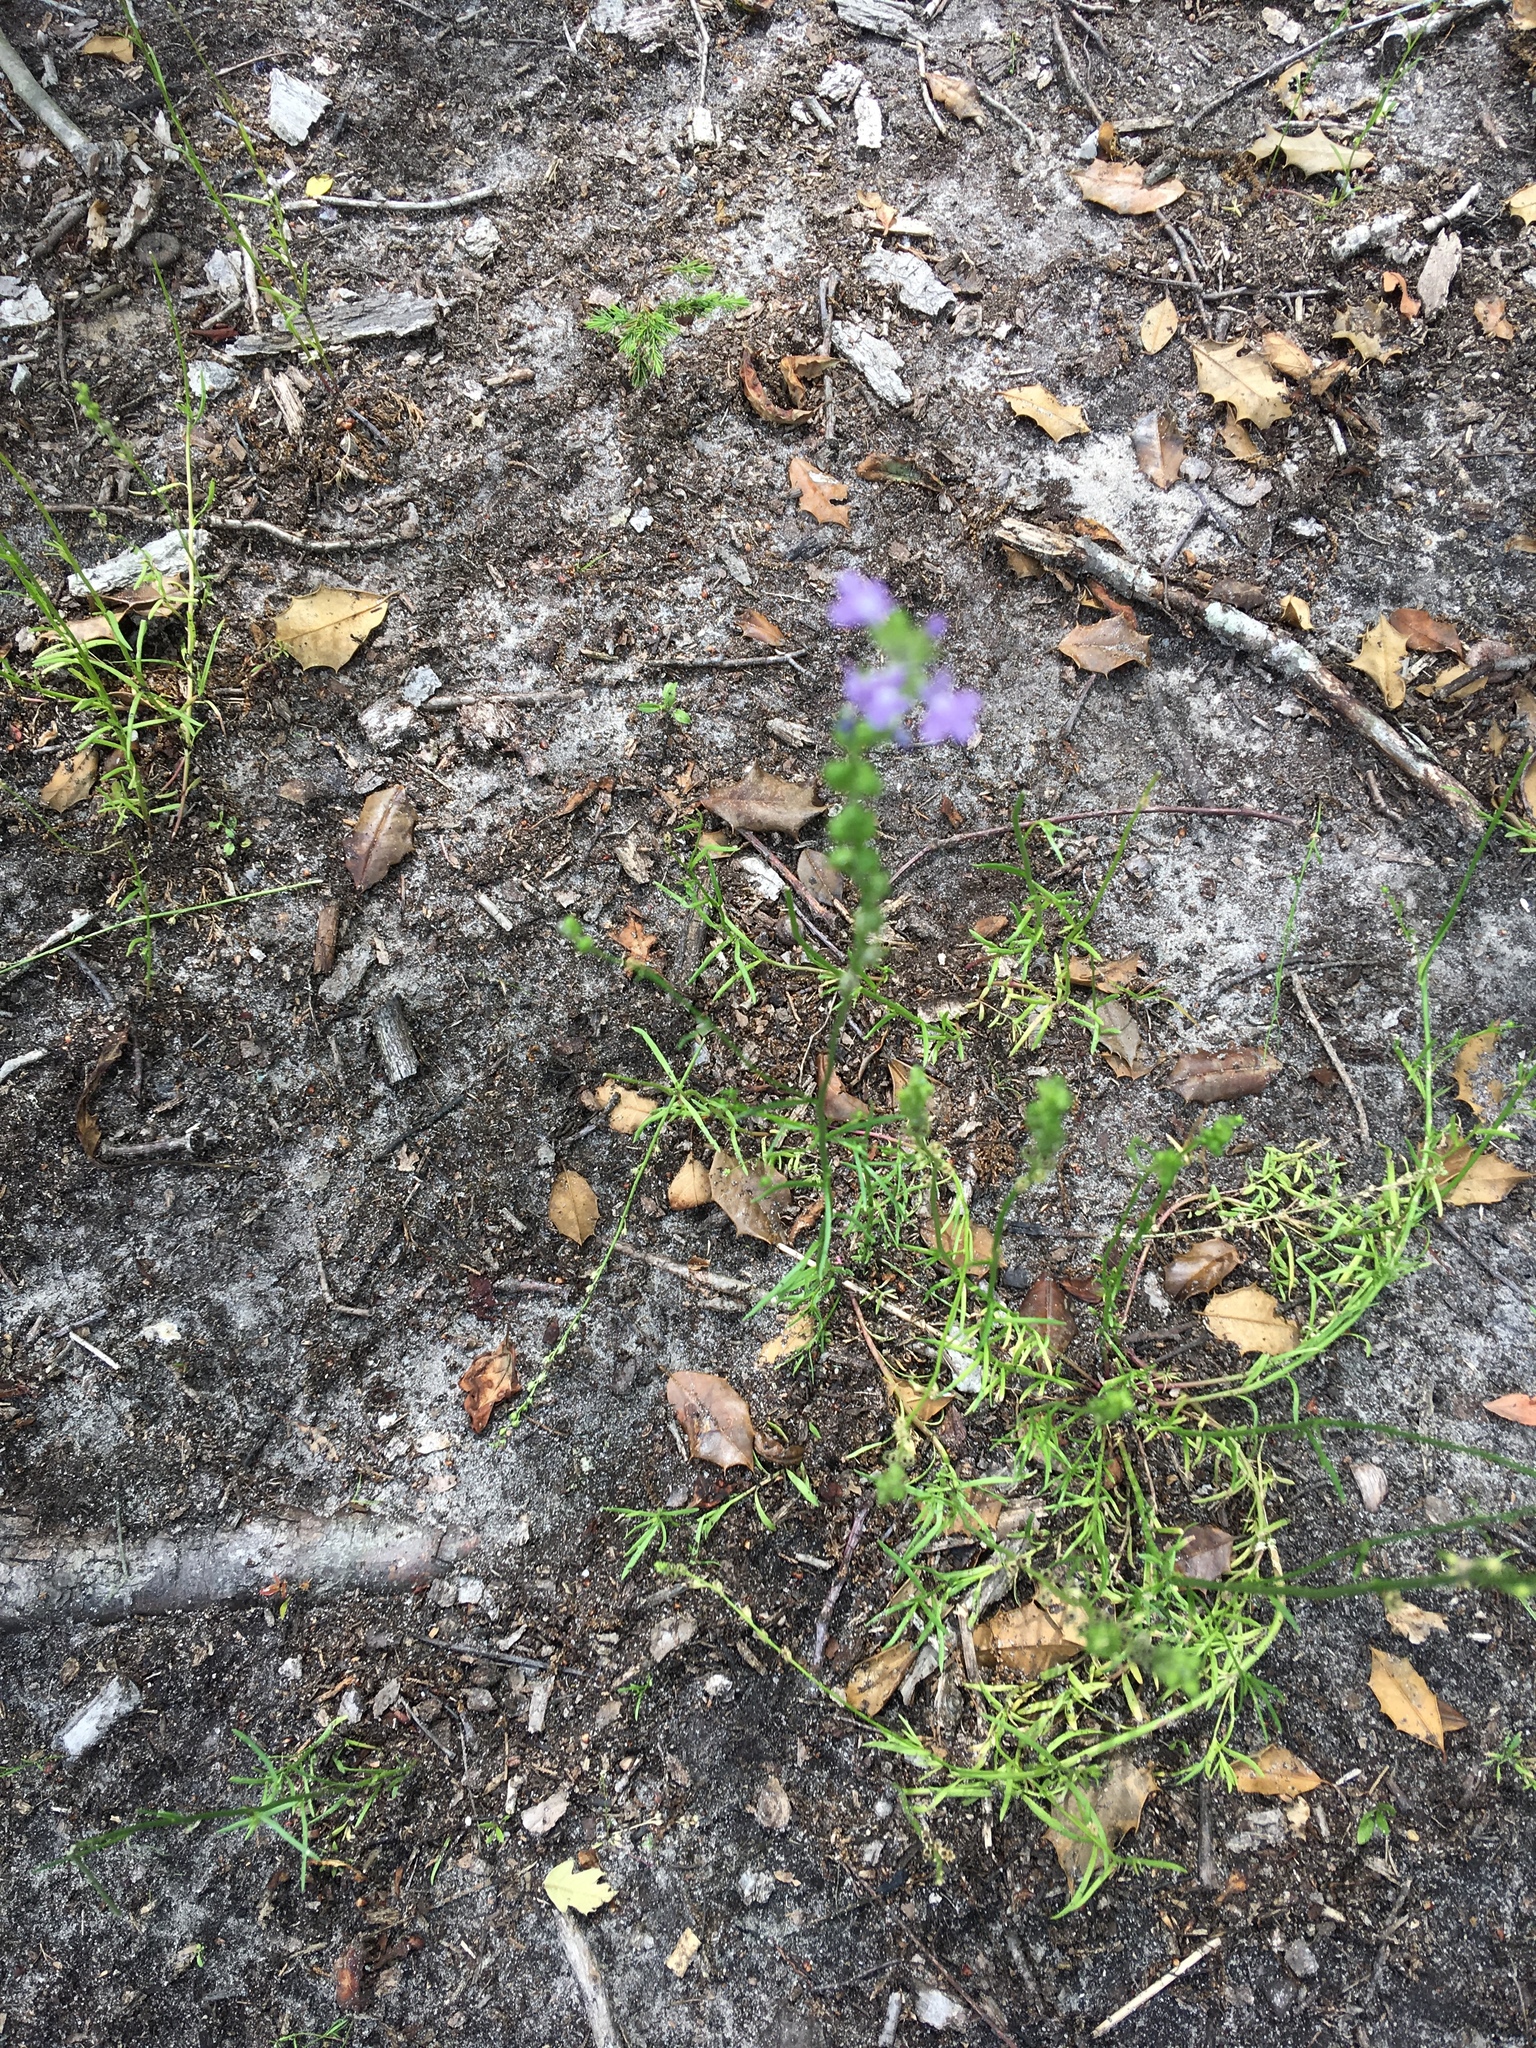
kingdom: Plantae
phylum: Tracheophyta
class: Magnoliopsida
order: Lamiales
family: Plantaginaceae
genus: Nuttallanthus
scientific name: Nuttallanthus canadensis
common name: Blue toadflax
